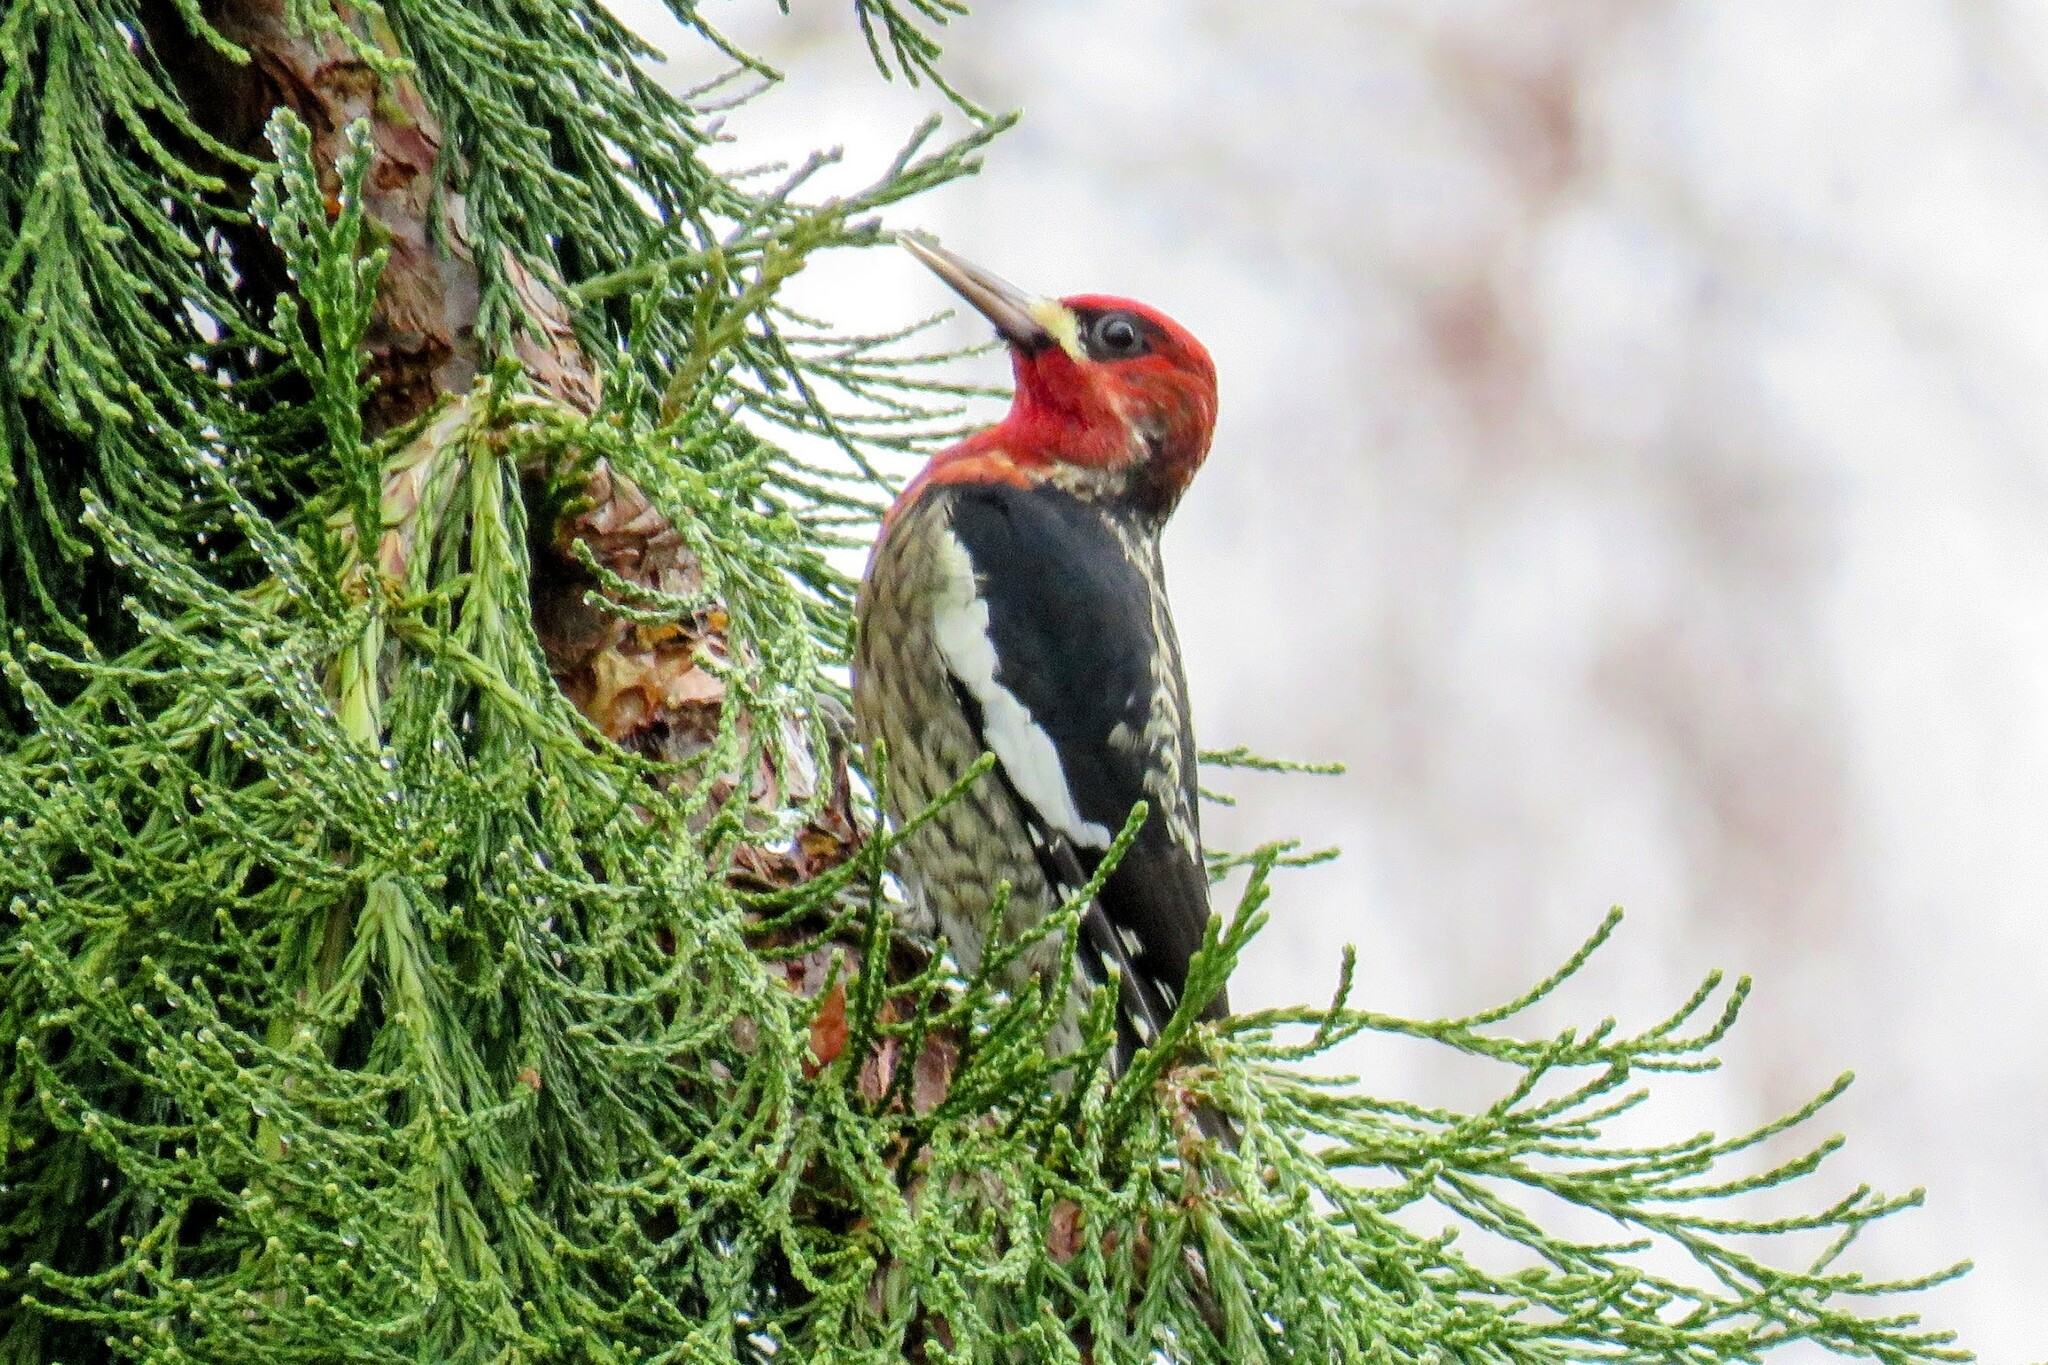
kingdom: Animalia
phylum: Chordata
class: Aves
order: Piciformes
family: Picidae
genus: Sphyrapicus
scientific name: Sphyrapicus ruber
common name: Red-breasted sapsucker
